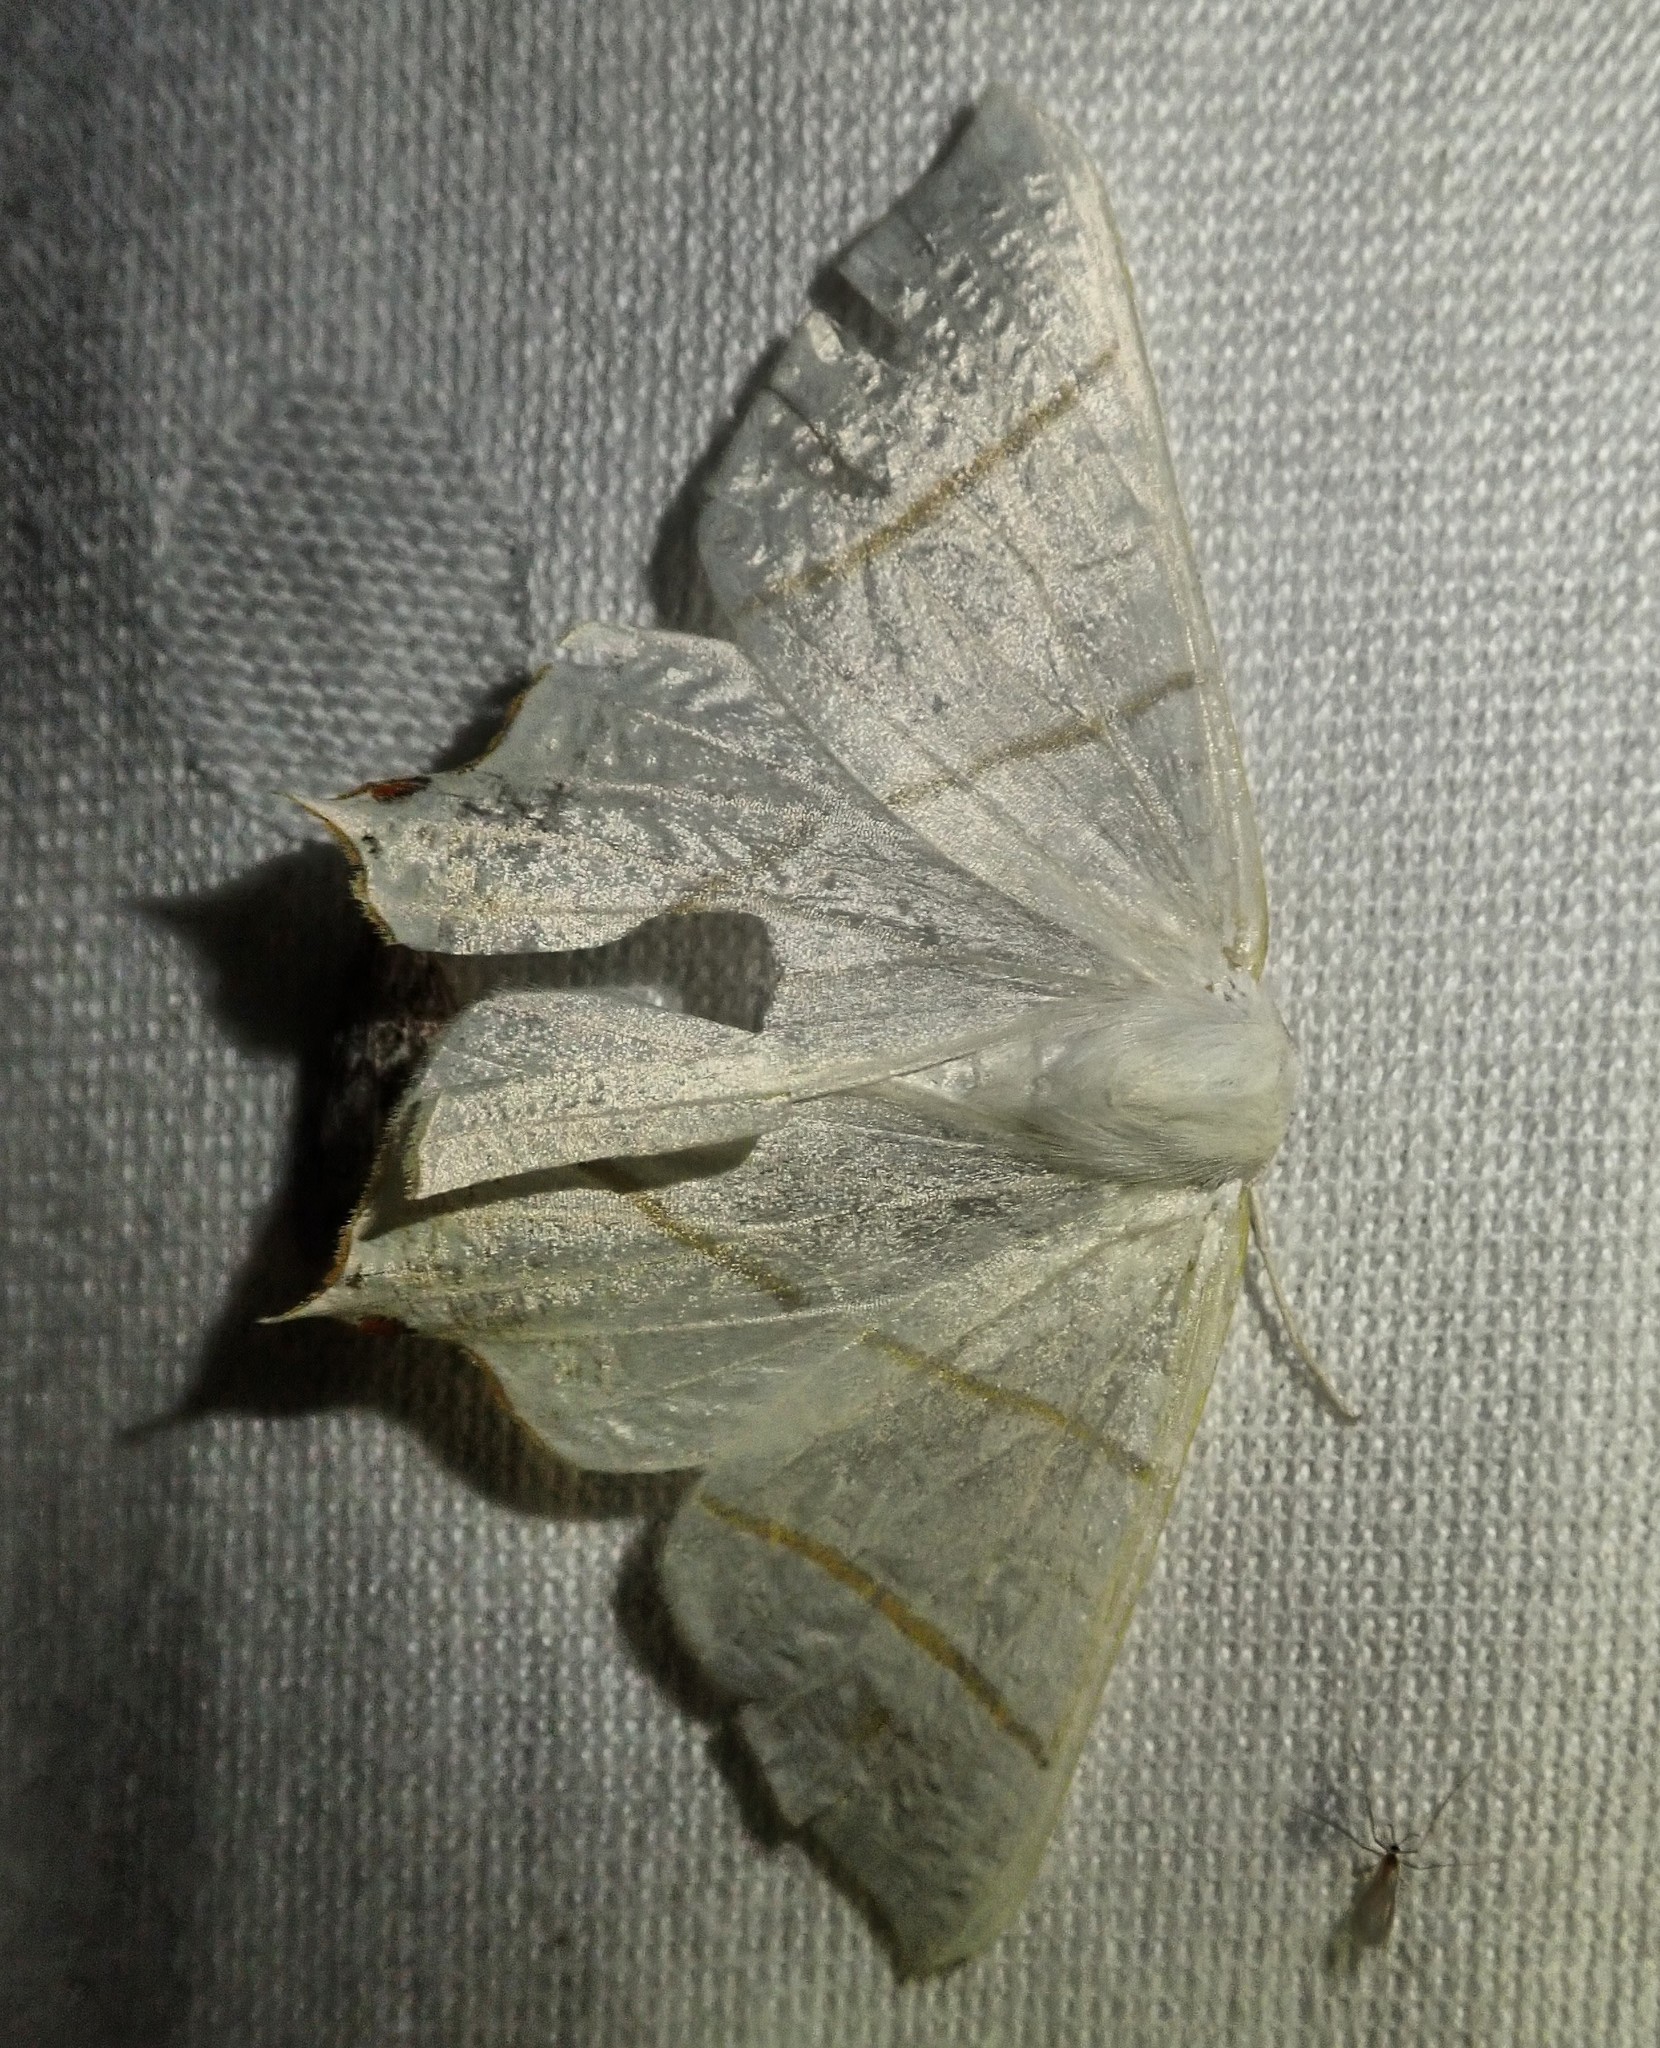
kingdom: Animalia
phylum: Arthropoda
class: Insecta
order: Lepidoptera
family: Geometridae
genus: Ourapteryx
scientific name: Ourapteryx sambucaria
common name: Swallow-tailed moth
